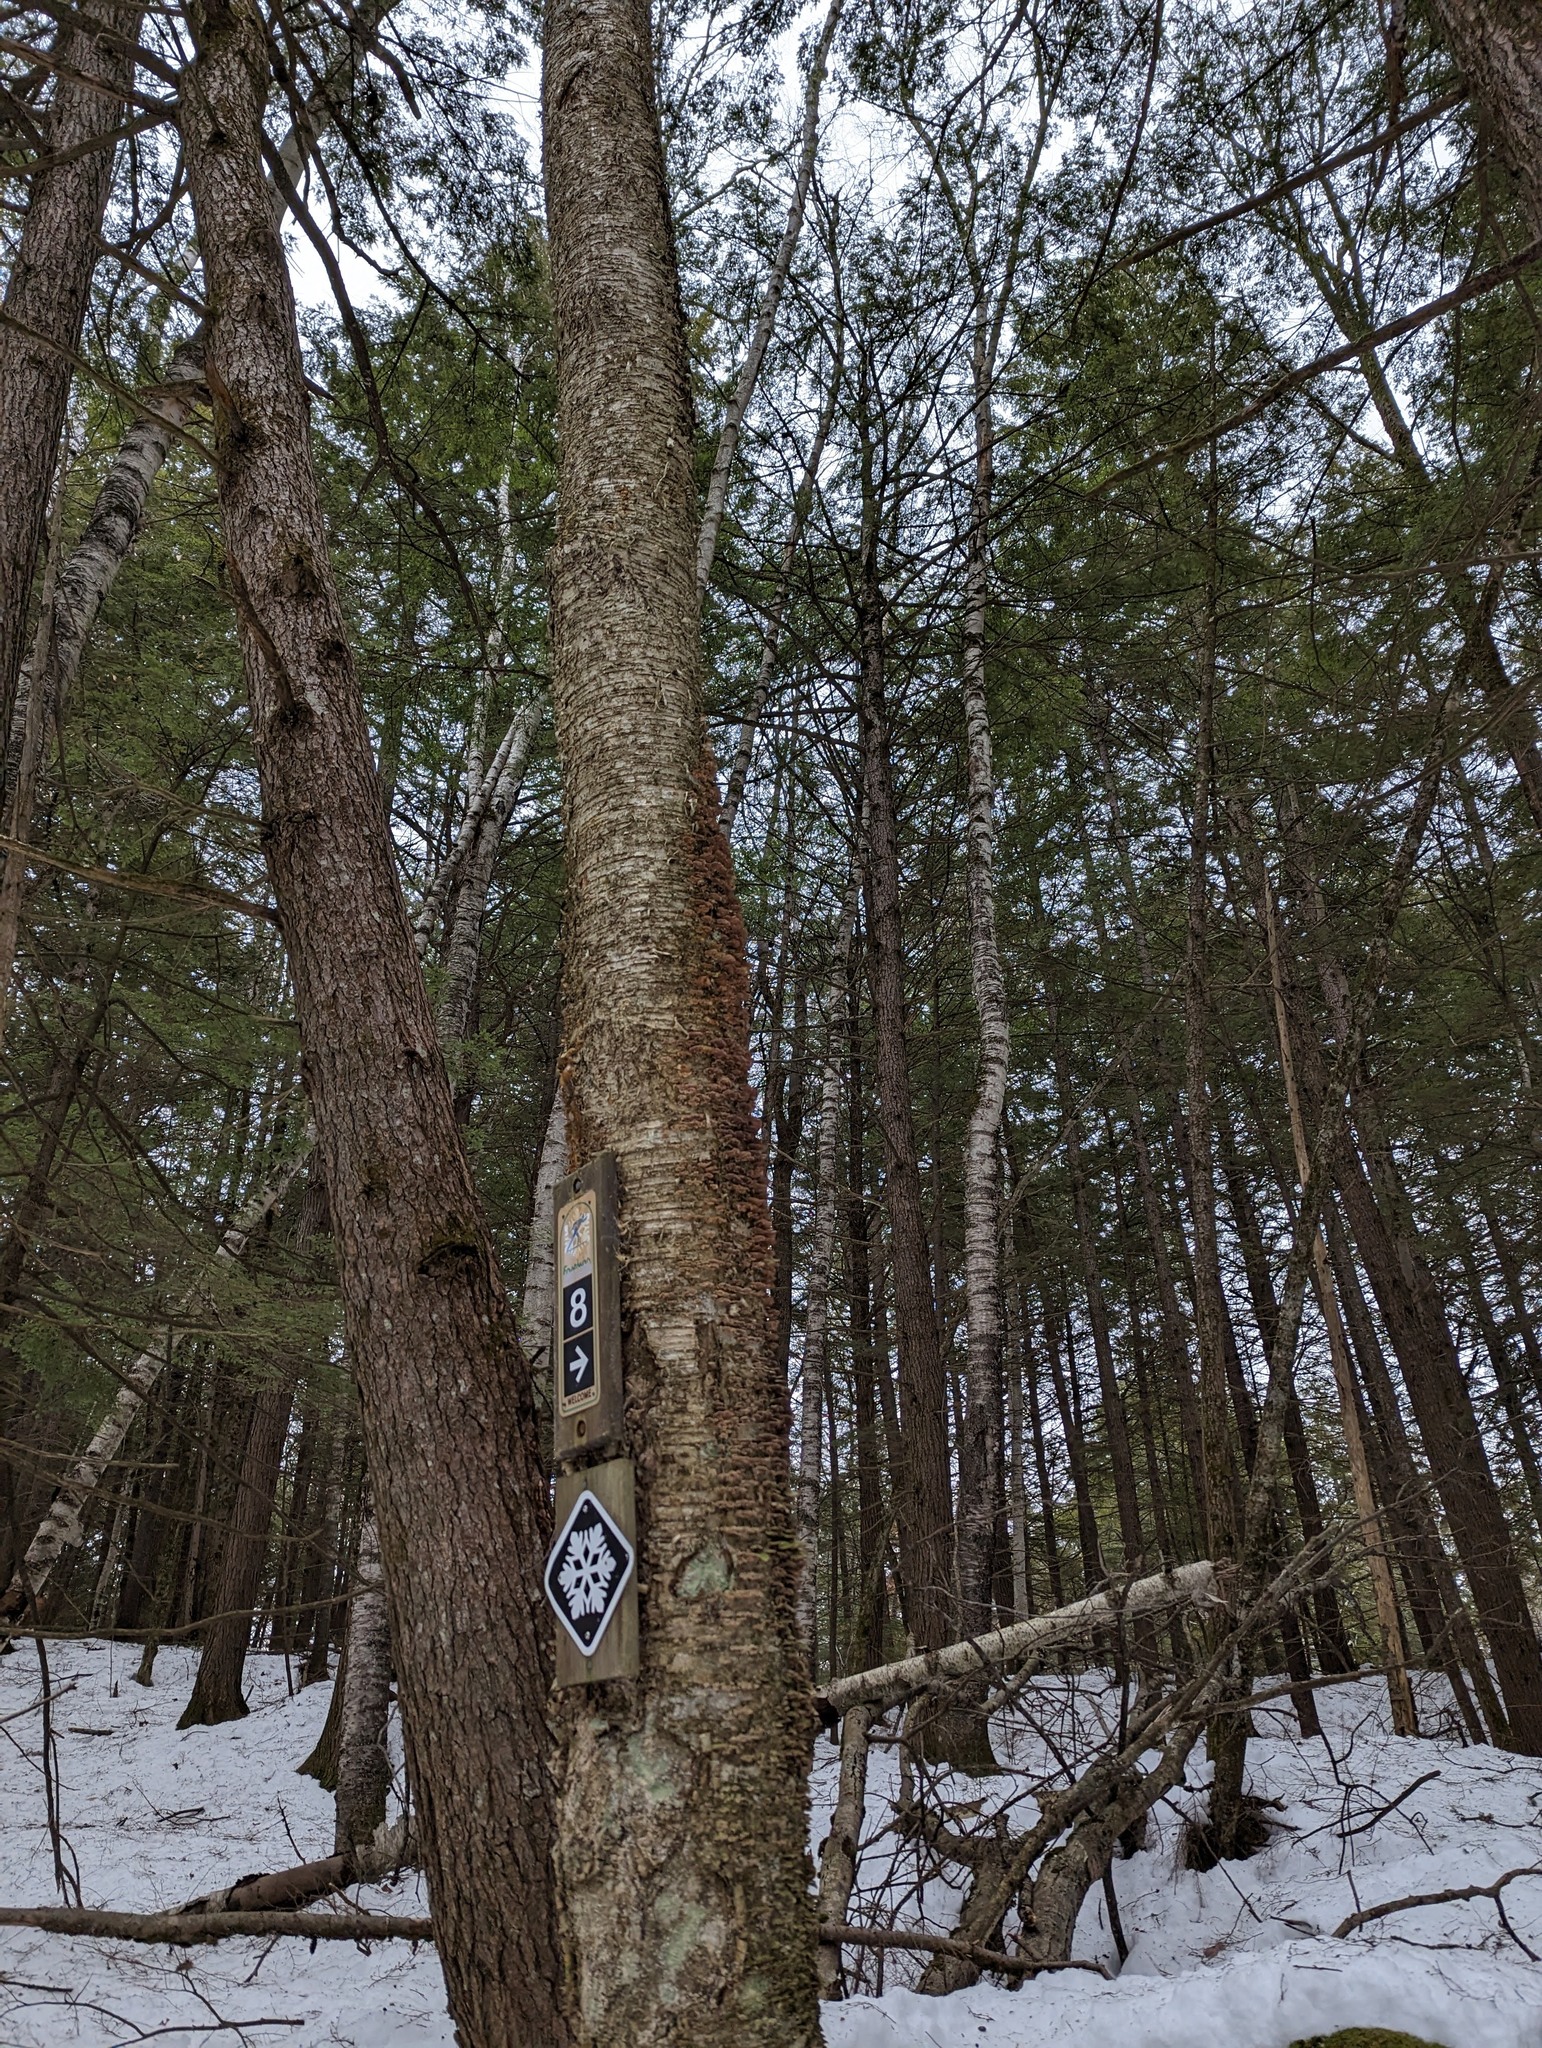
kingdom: Plantae
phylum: Tracheophyta
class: Magnoliopsida
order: Fagales
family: Betulaceae
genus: Betula
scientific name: Betula alleghaniensis
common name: Yellow birch
